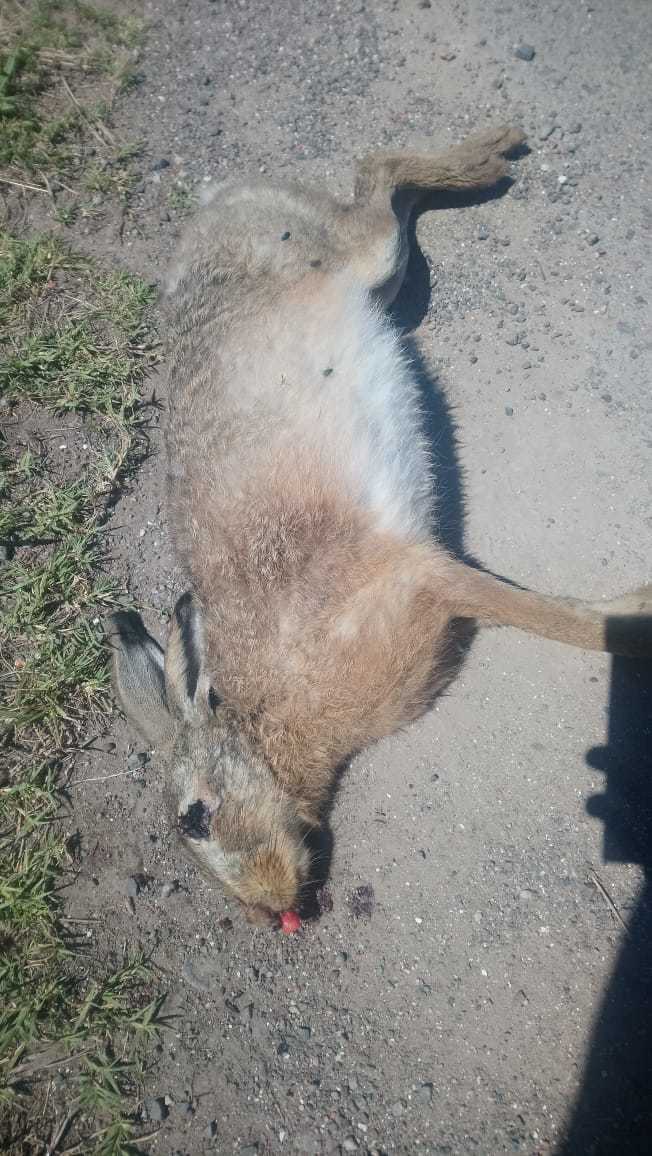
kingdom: Animalia
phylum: Chordata
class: Mammalia
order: Lagomorpha
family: Leporidae
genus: Lepus
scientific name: Lepus europaeus
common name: European hare
